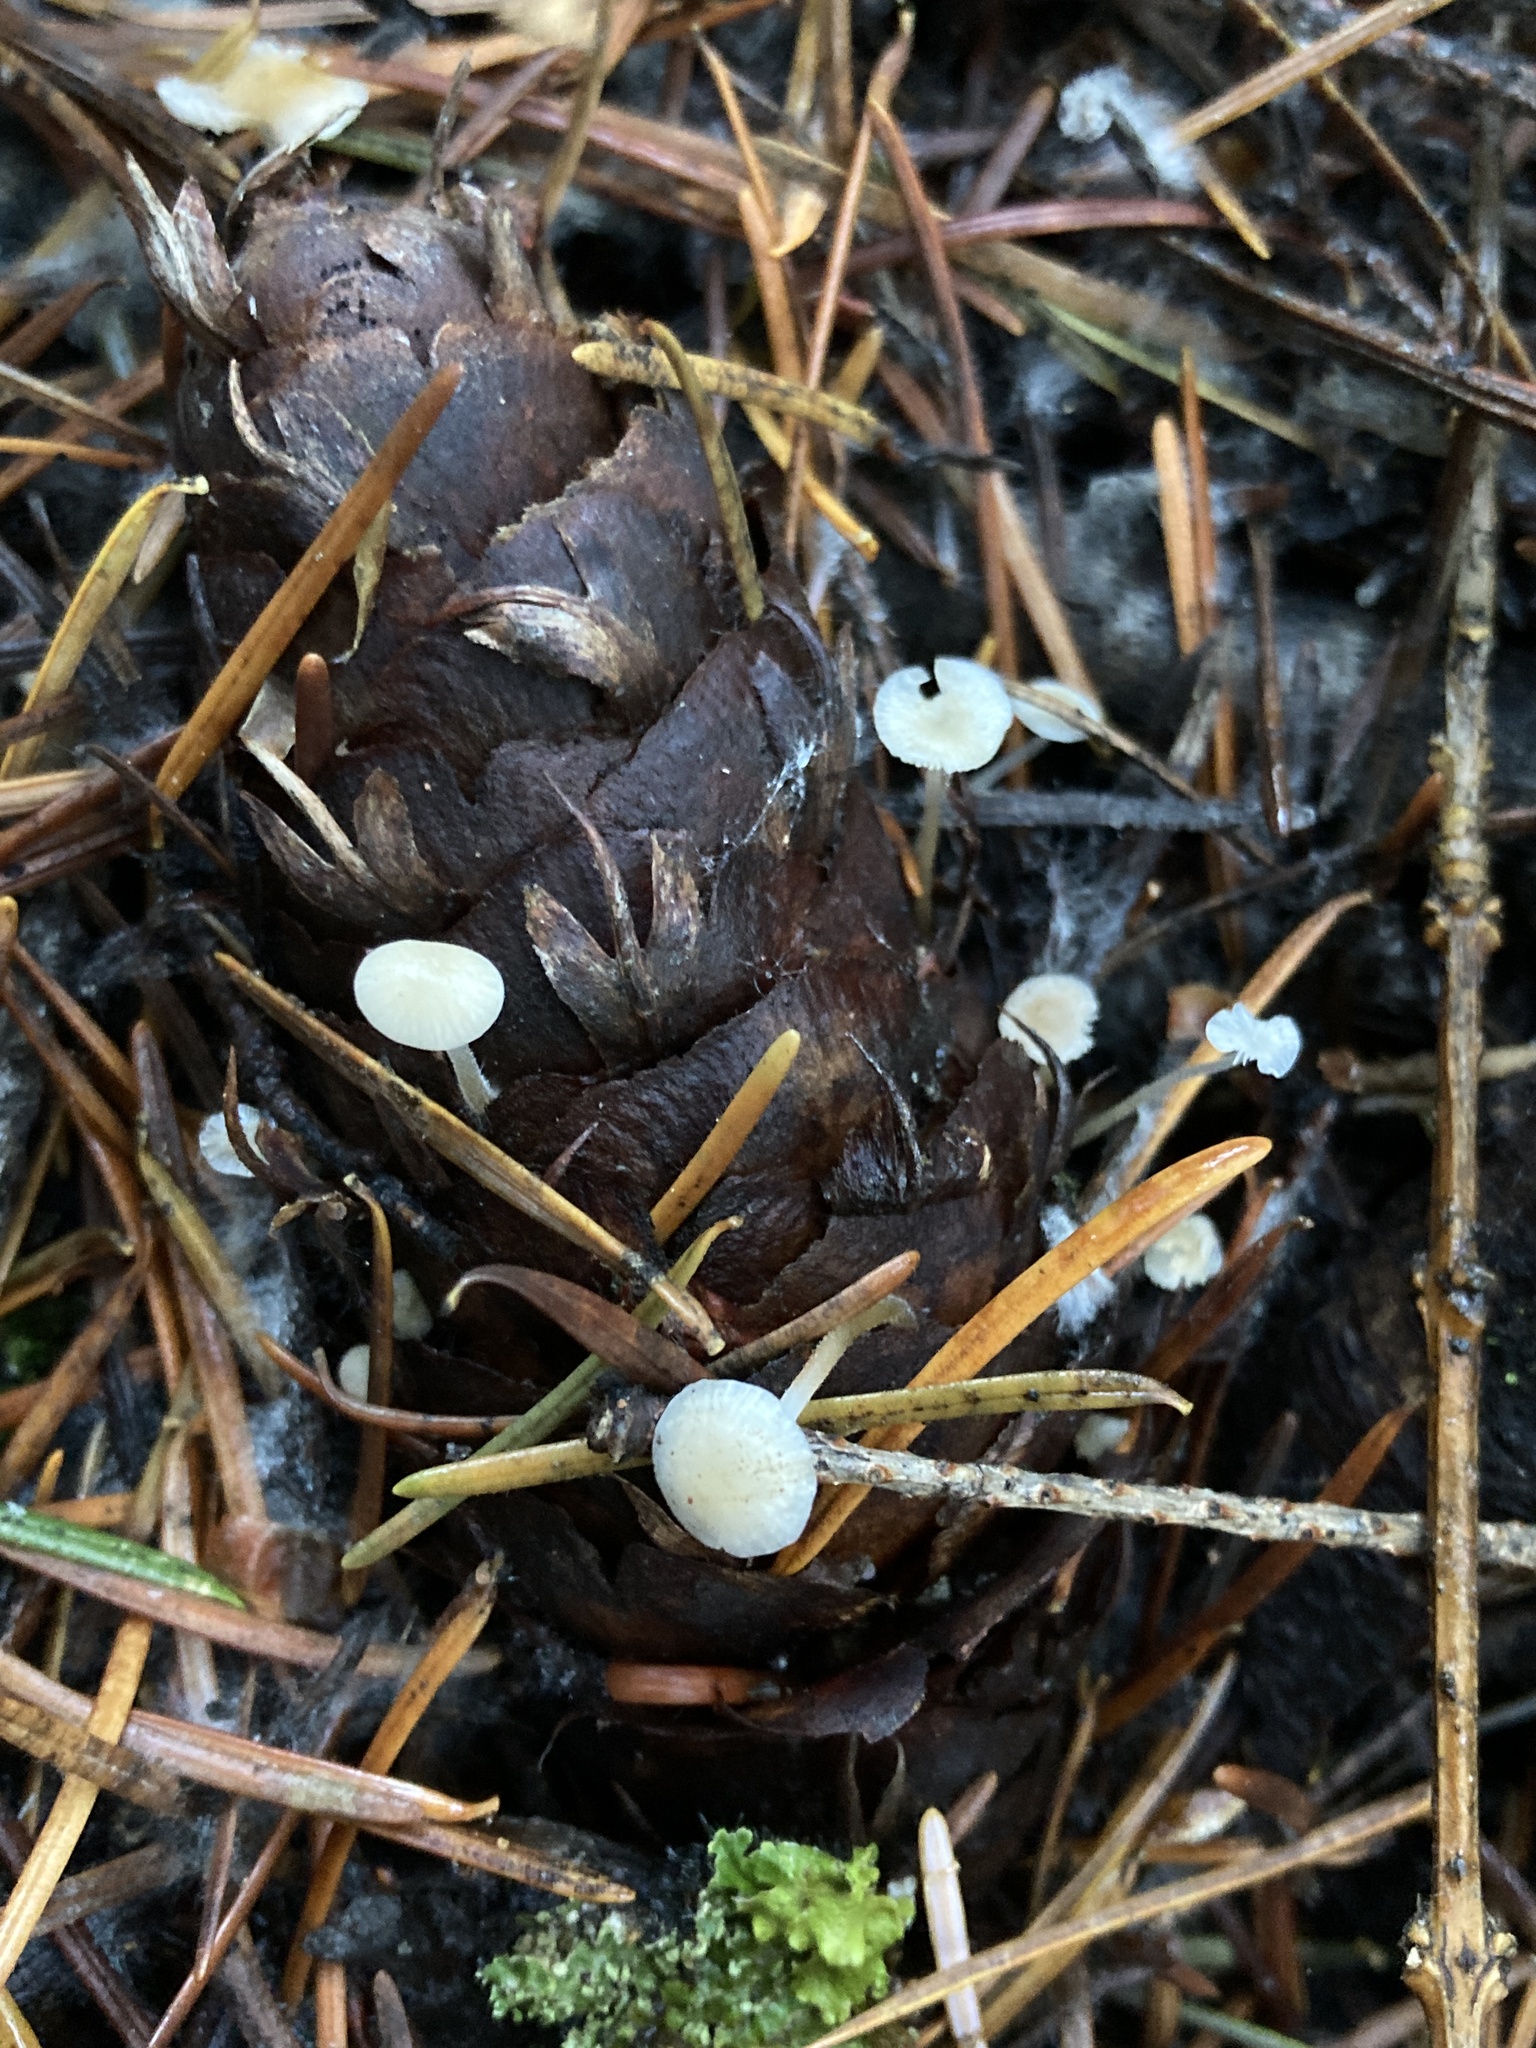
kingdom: Fungi
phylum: Basidiomycota
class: Agaricomycetes
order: Agaricales
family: Physalacriaceae
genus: Strobilurus
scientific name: Strobilurus trullisatus
